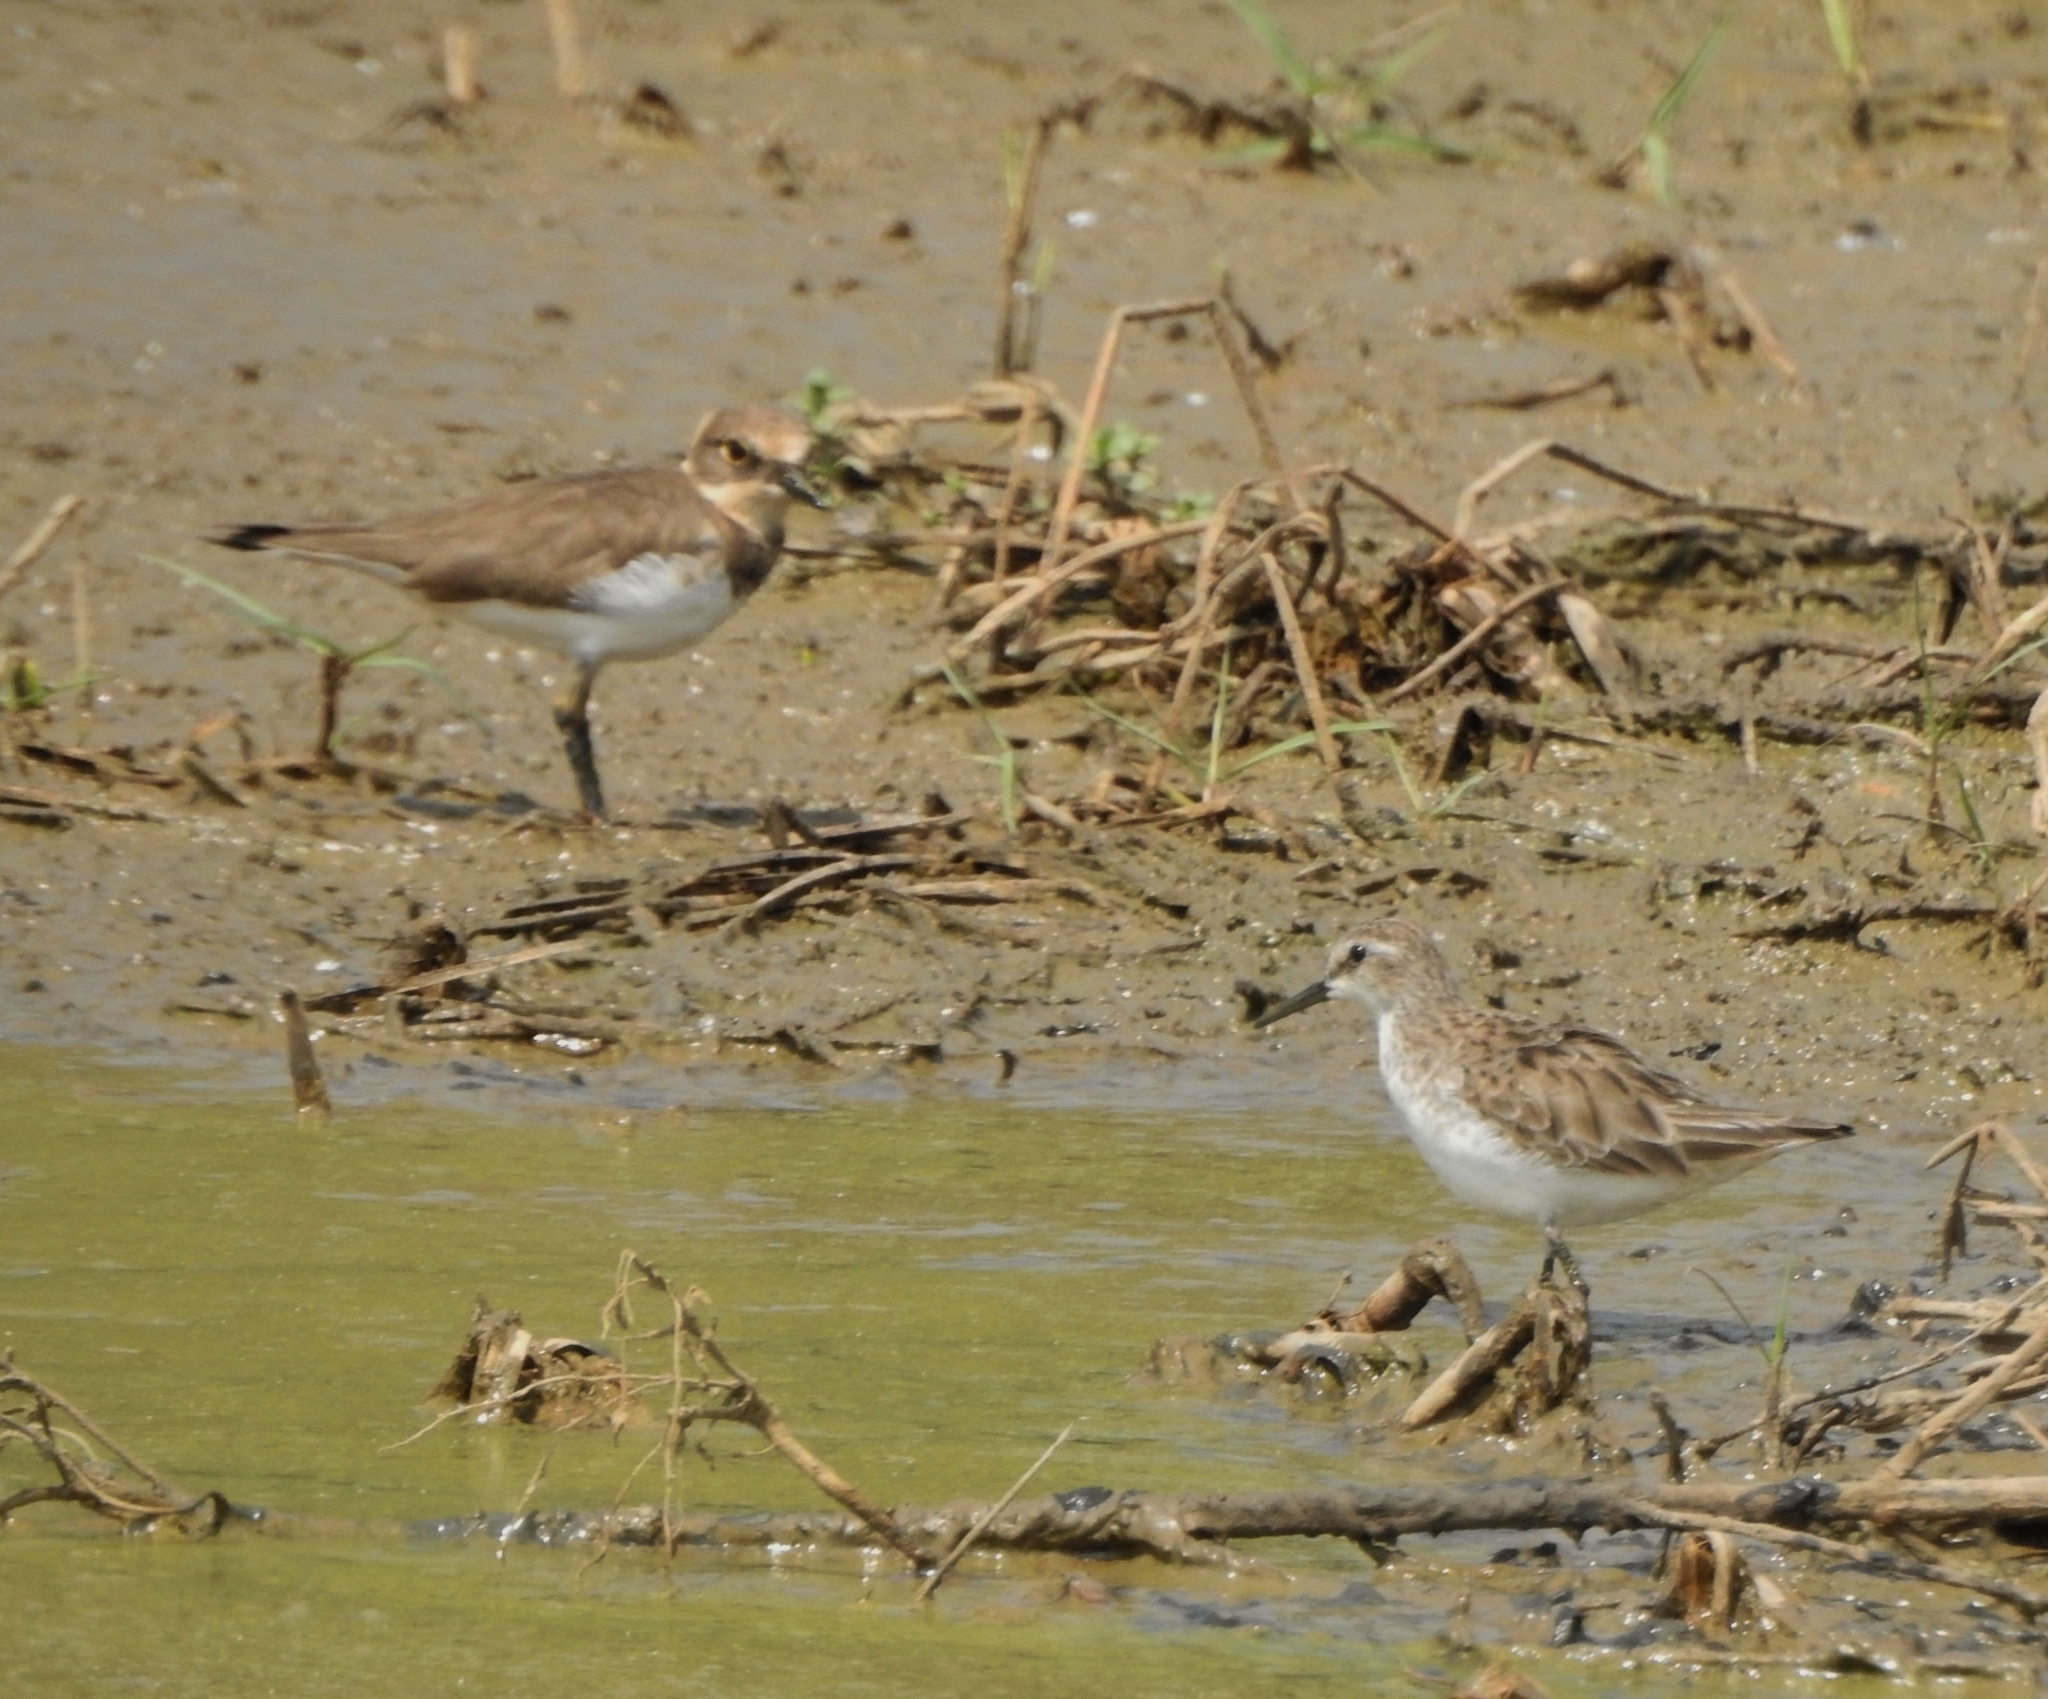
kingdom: Animalia
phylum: Chordata
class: Aves
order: Charadriiformes
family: Charadriidae
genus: Charadrius
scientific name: Charadrius dubius
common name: Little ringed plover
